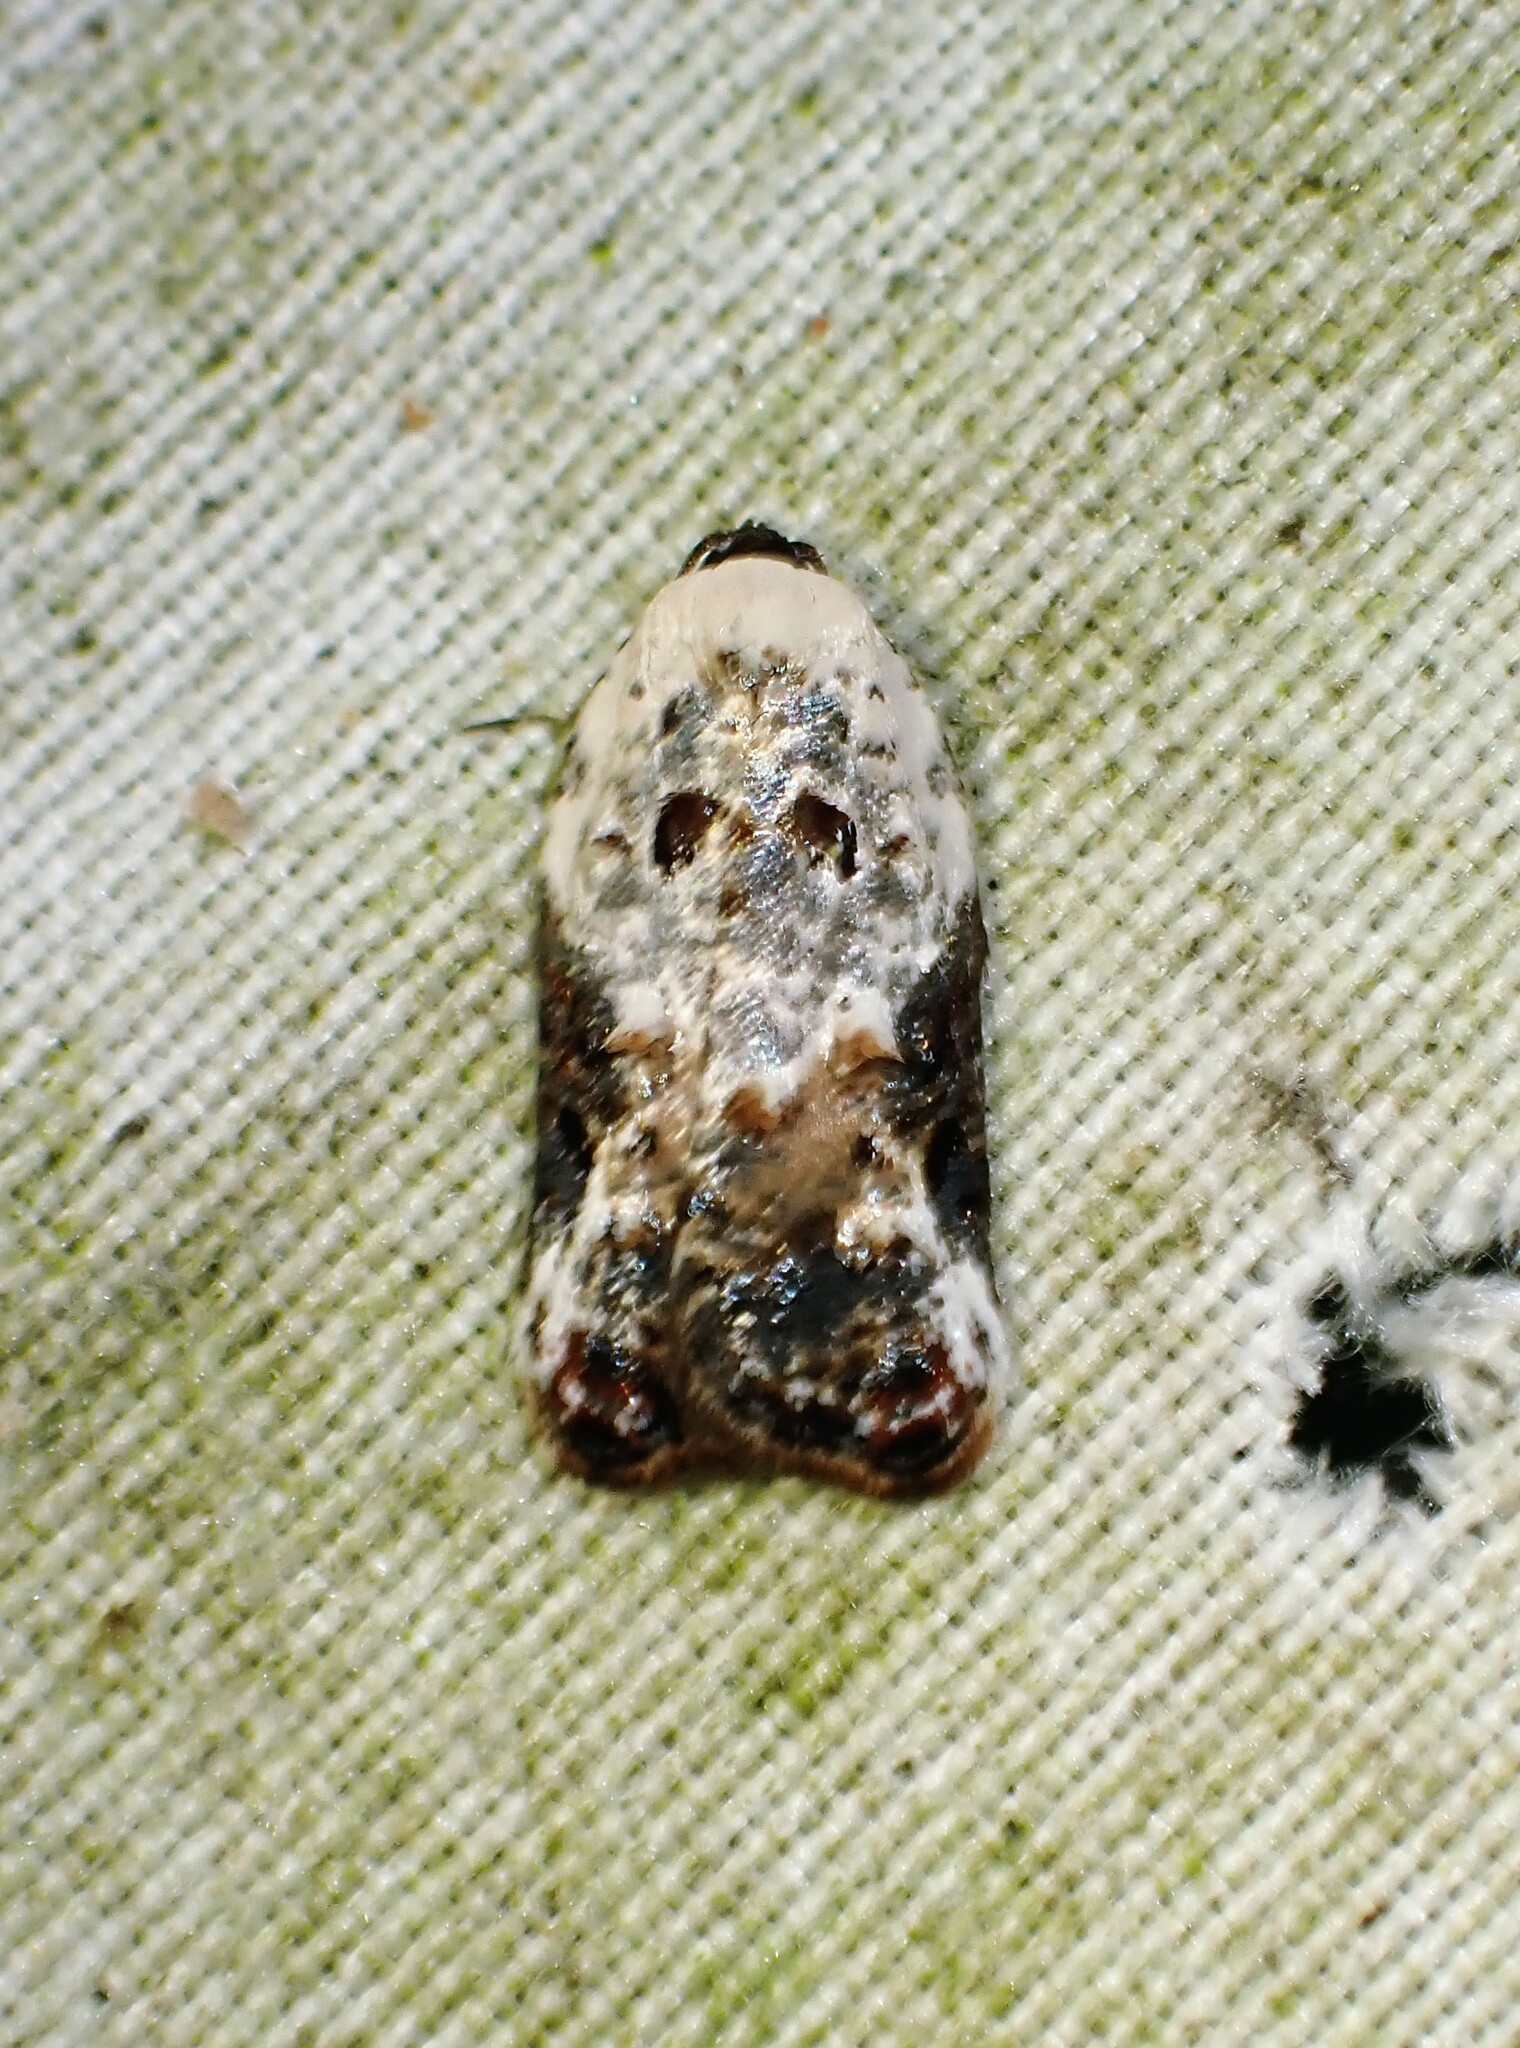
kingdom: Animalia
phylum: Arthropoda
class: Insecta
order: Lepidoptera
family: Tortricidae
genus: Acleris
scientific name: Acleris nivisellana
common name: Snowy-shouldered acleris moth
